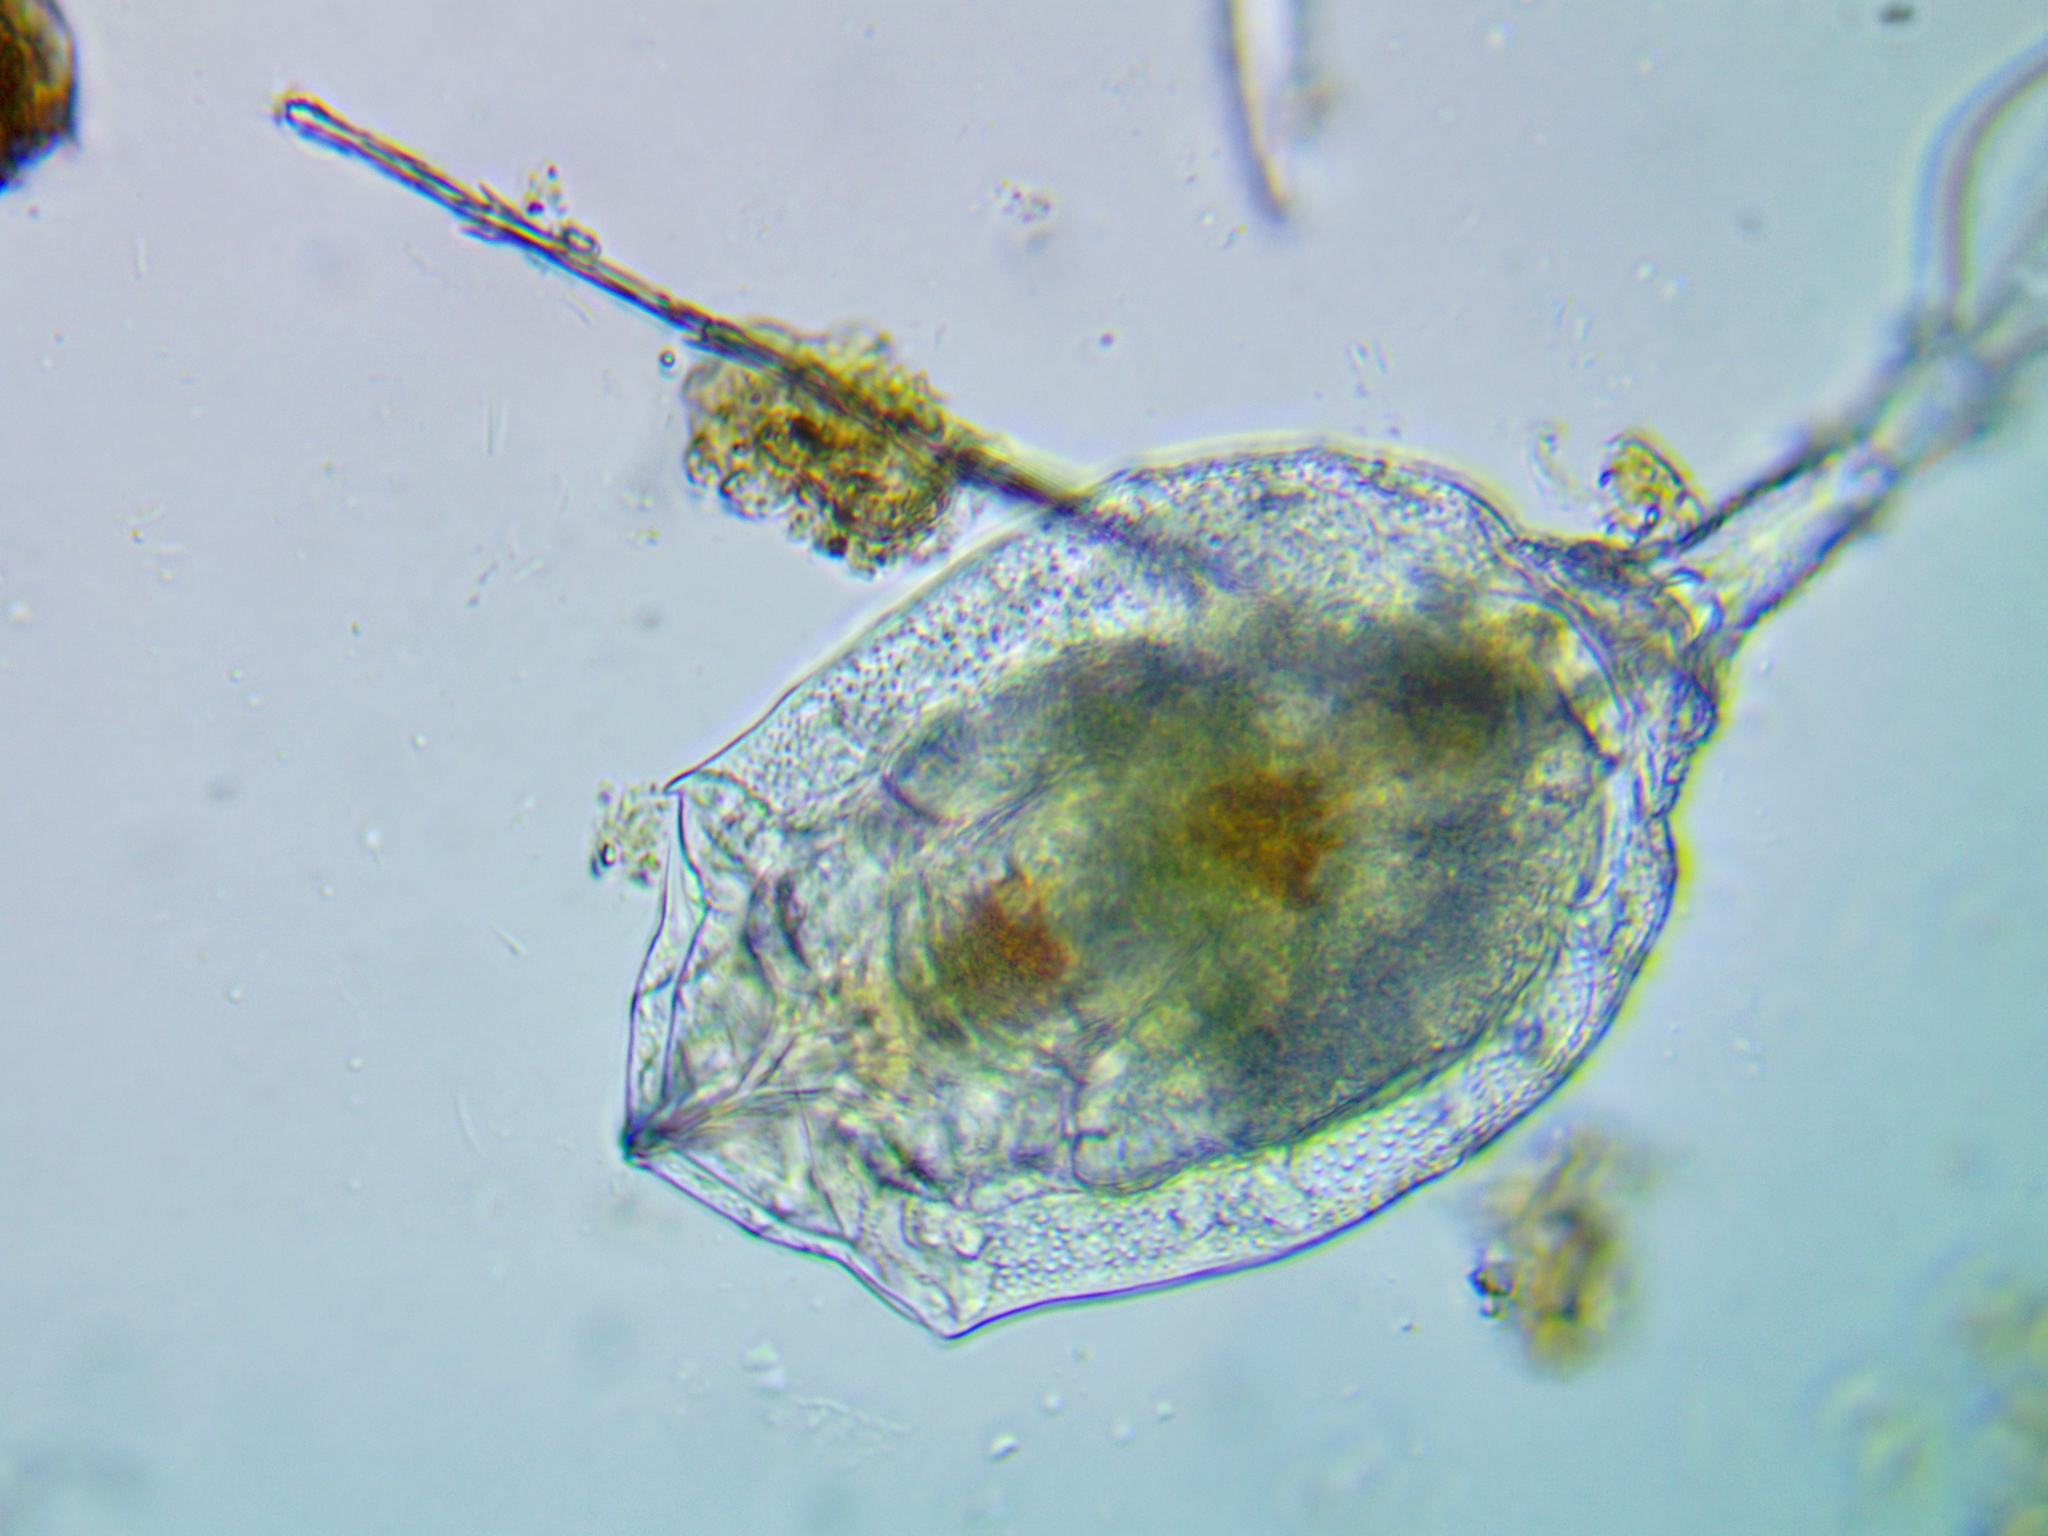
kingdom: Animalia
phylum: Rotifera
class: Eurotatoria
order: Ploima
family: Trichotriidae
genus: Trichotria
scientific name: Trichotria pocillum
